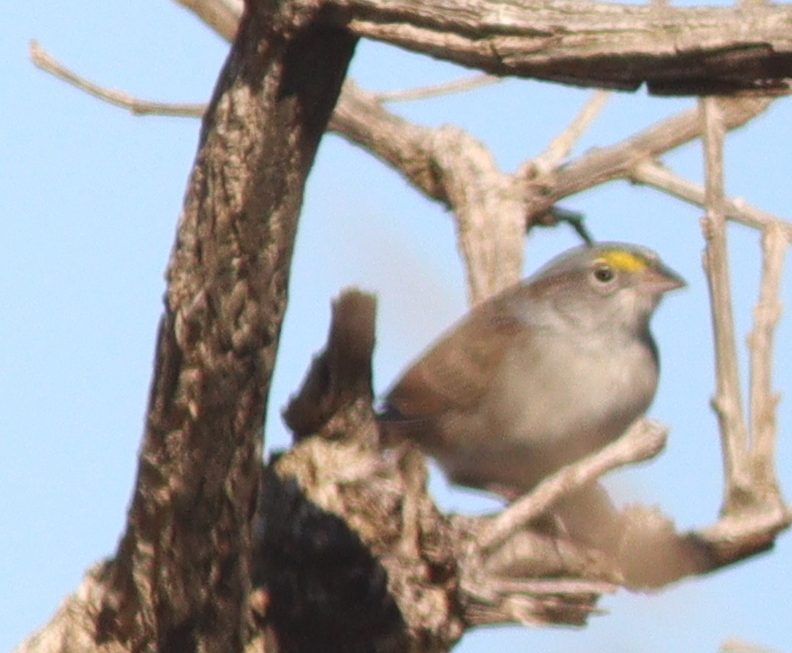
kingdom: Animalia
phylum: Chordata
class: Aves
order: Passeriformes
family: Passerellidae
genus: Ammodramus
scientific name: Ammodramus humeralis
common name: Grassland sparrow
